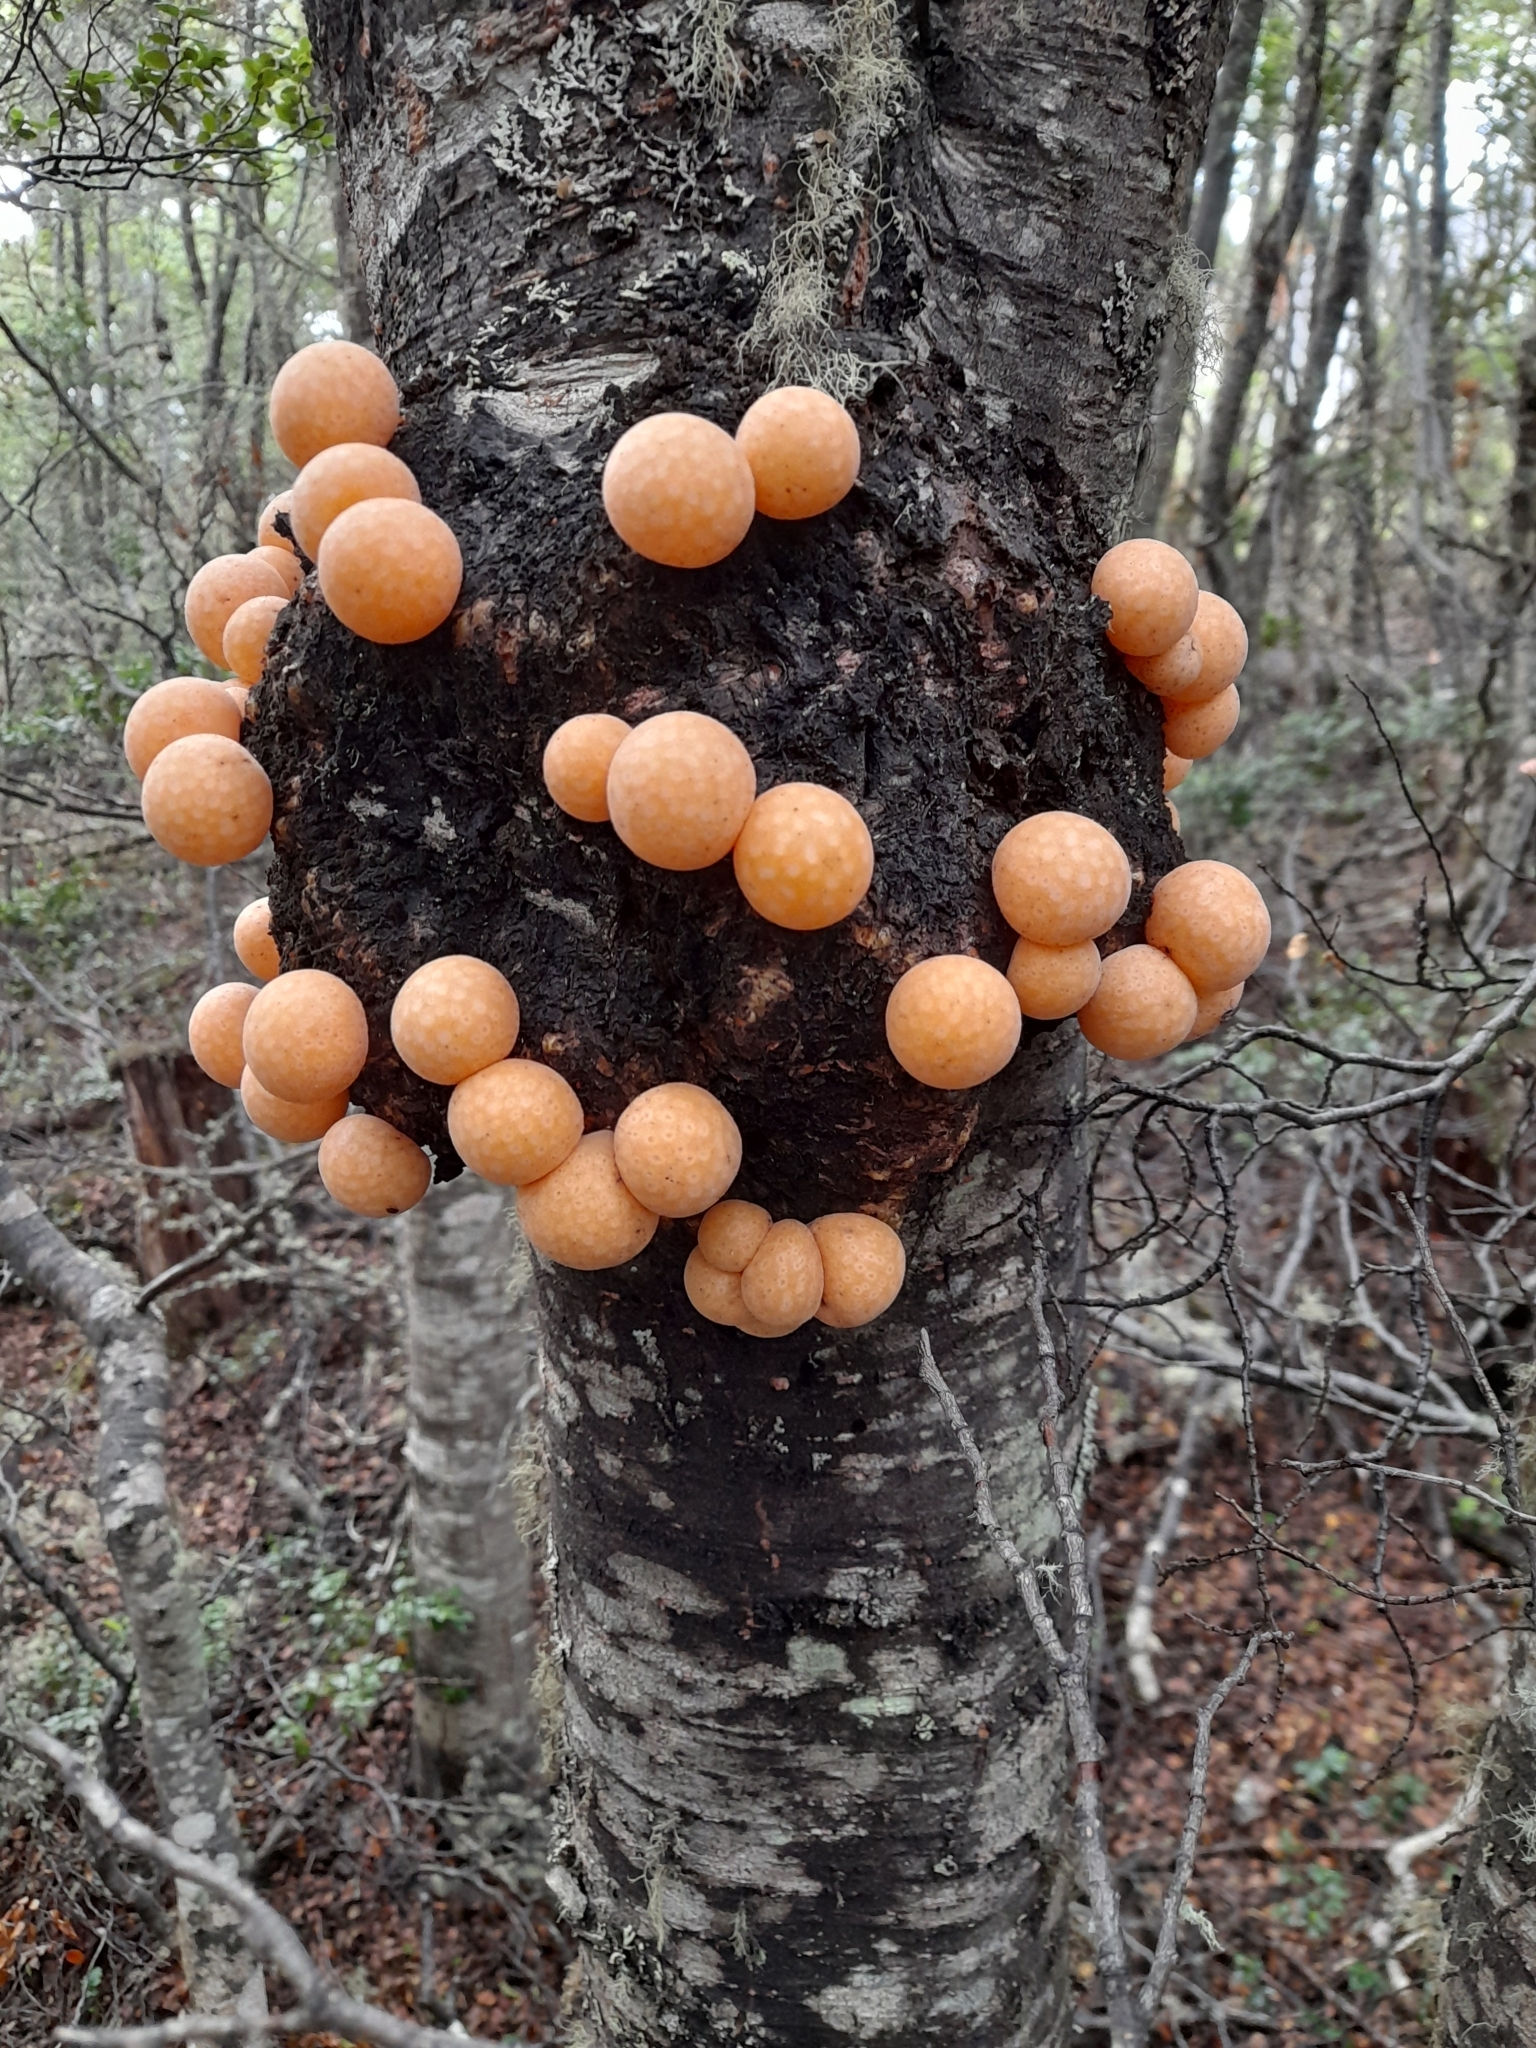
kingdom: Fungi
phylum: Ascomycota
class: Leotiomycetes
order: Cyttariales
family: Cyttariaceae
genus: Cyttaria
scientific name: Cyttaria hariotii
